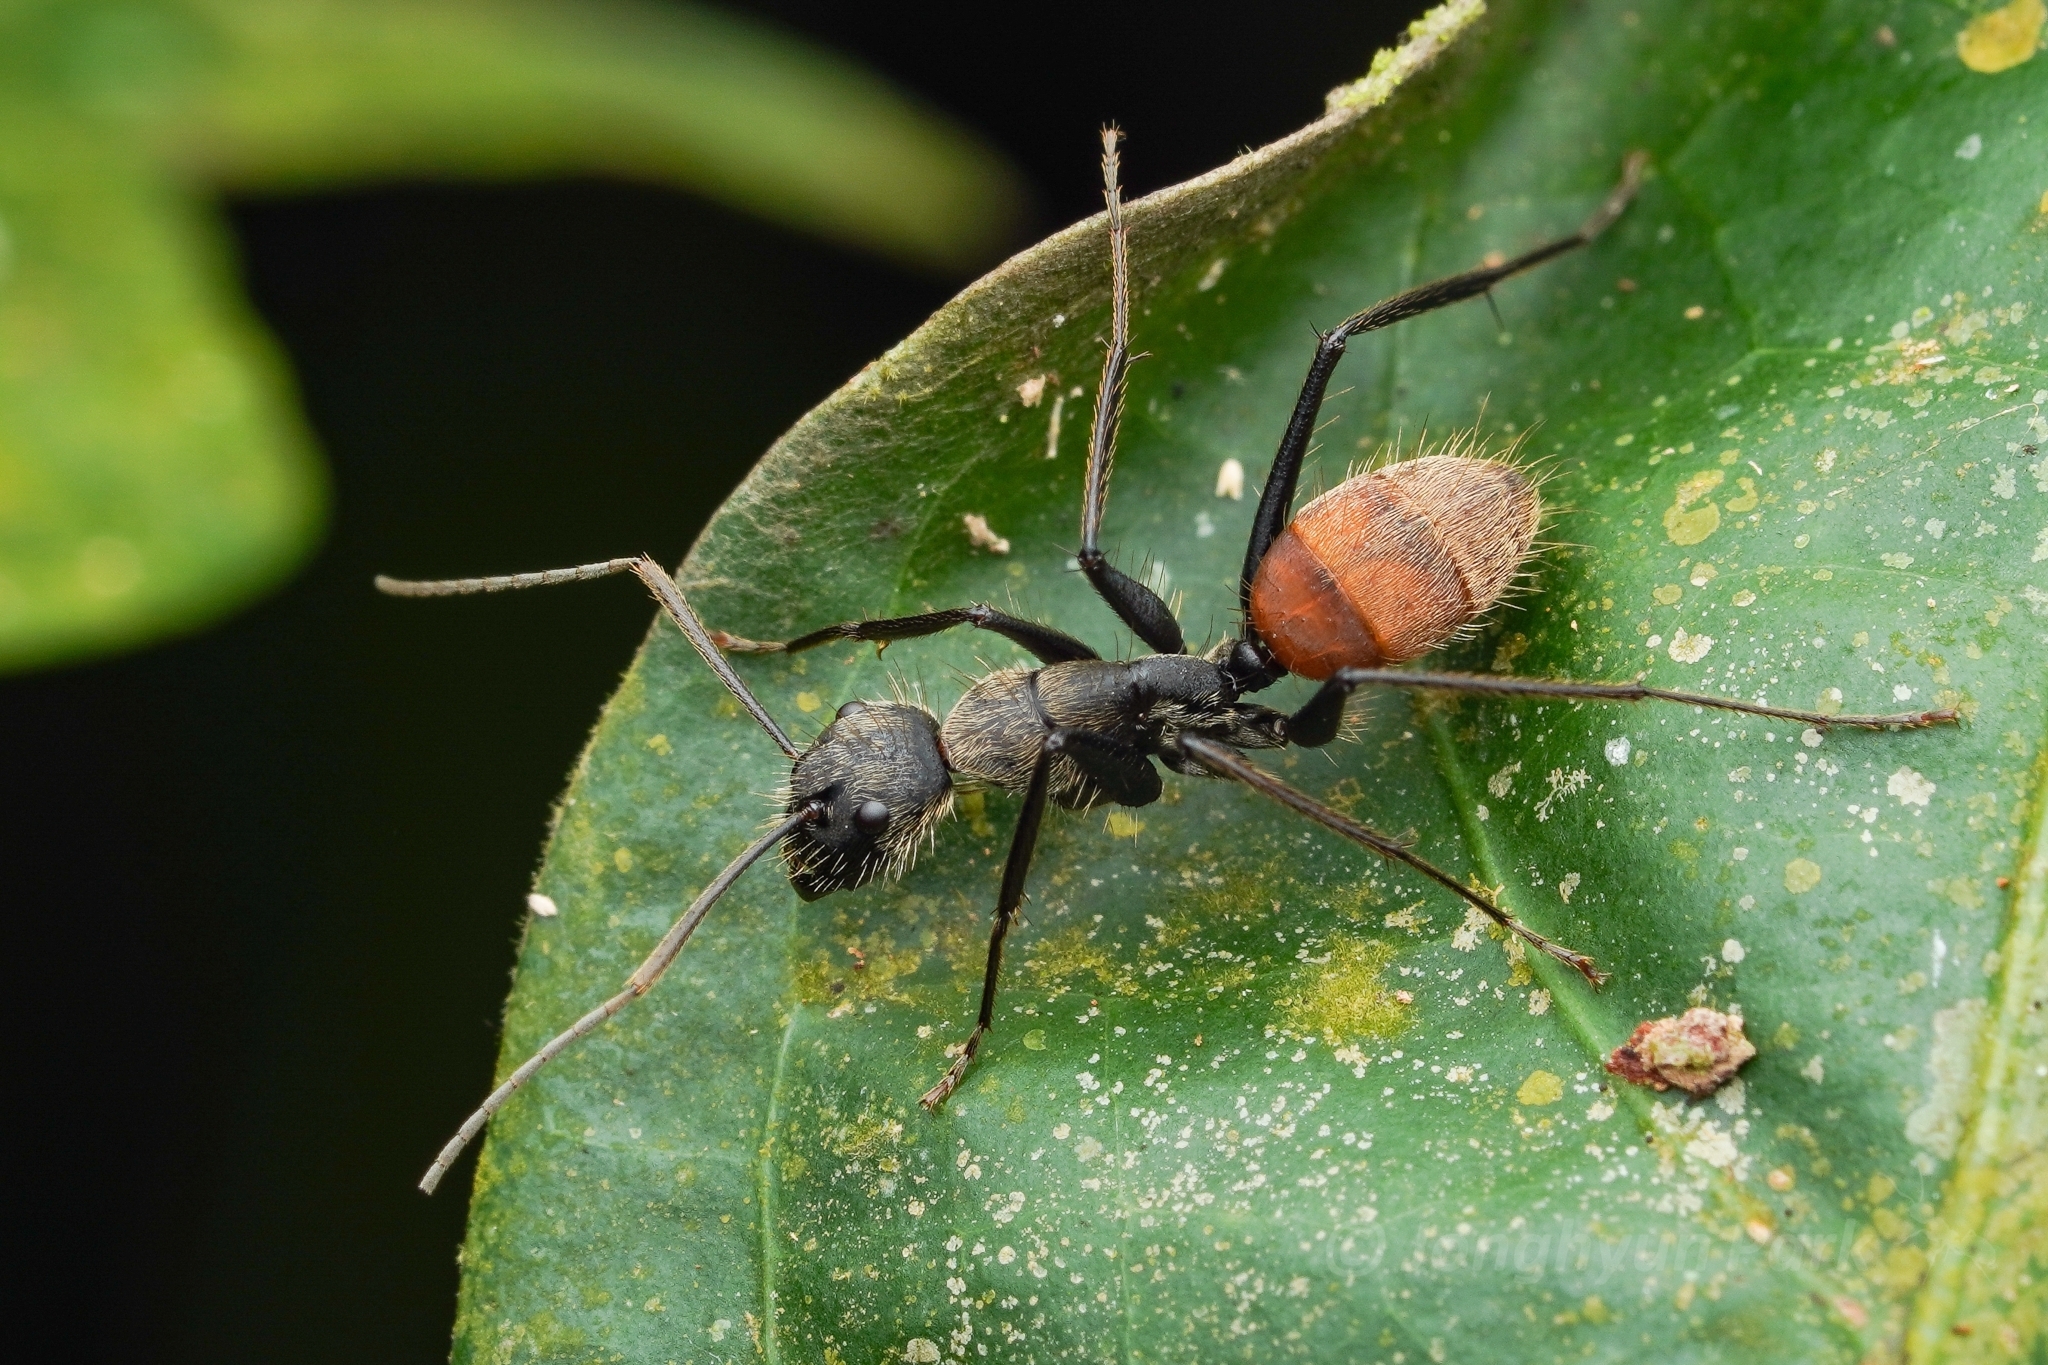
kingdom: Animalia
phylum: Arthropoda
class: Insecta
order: Hymenoptera
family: Formicidae
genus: Camponotus
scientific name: Camponotus rapax
